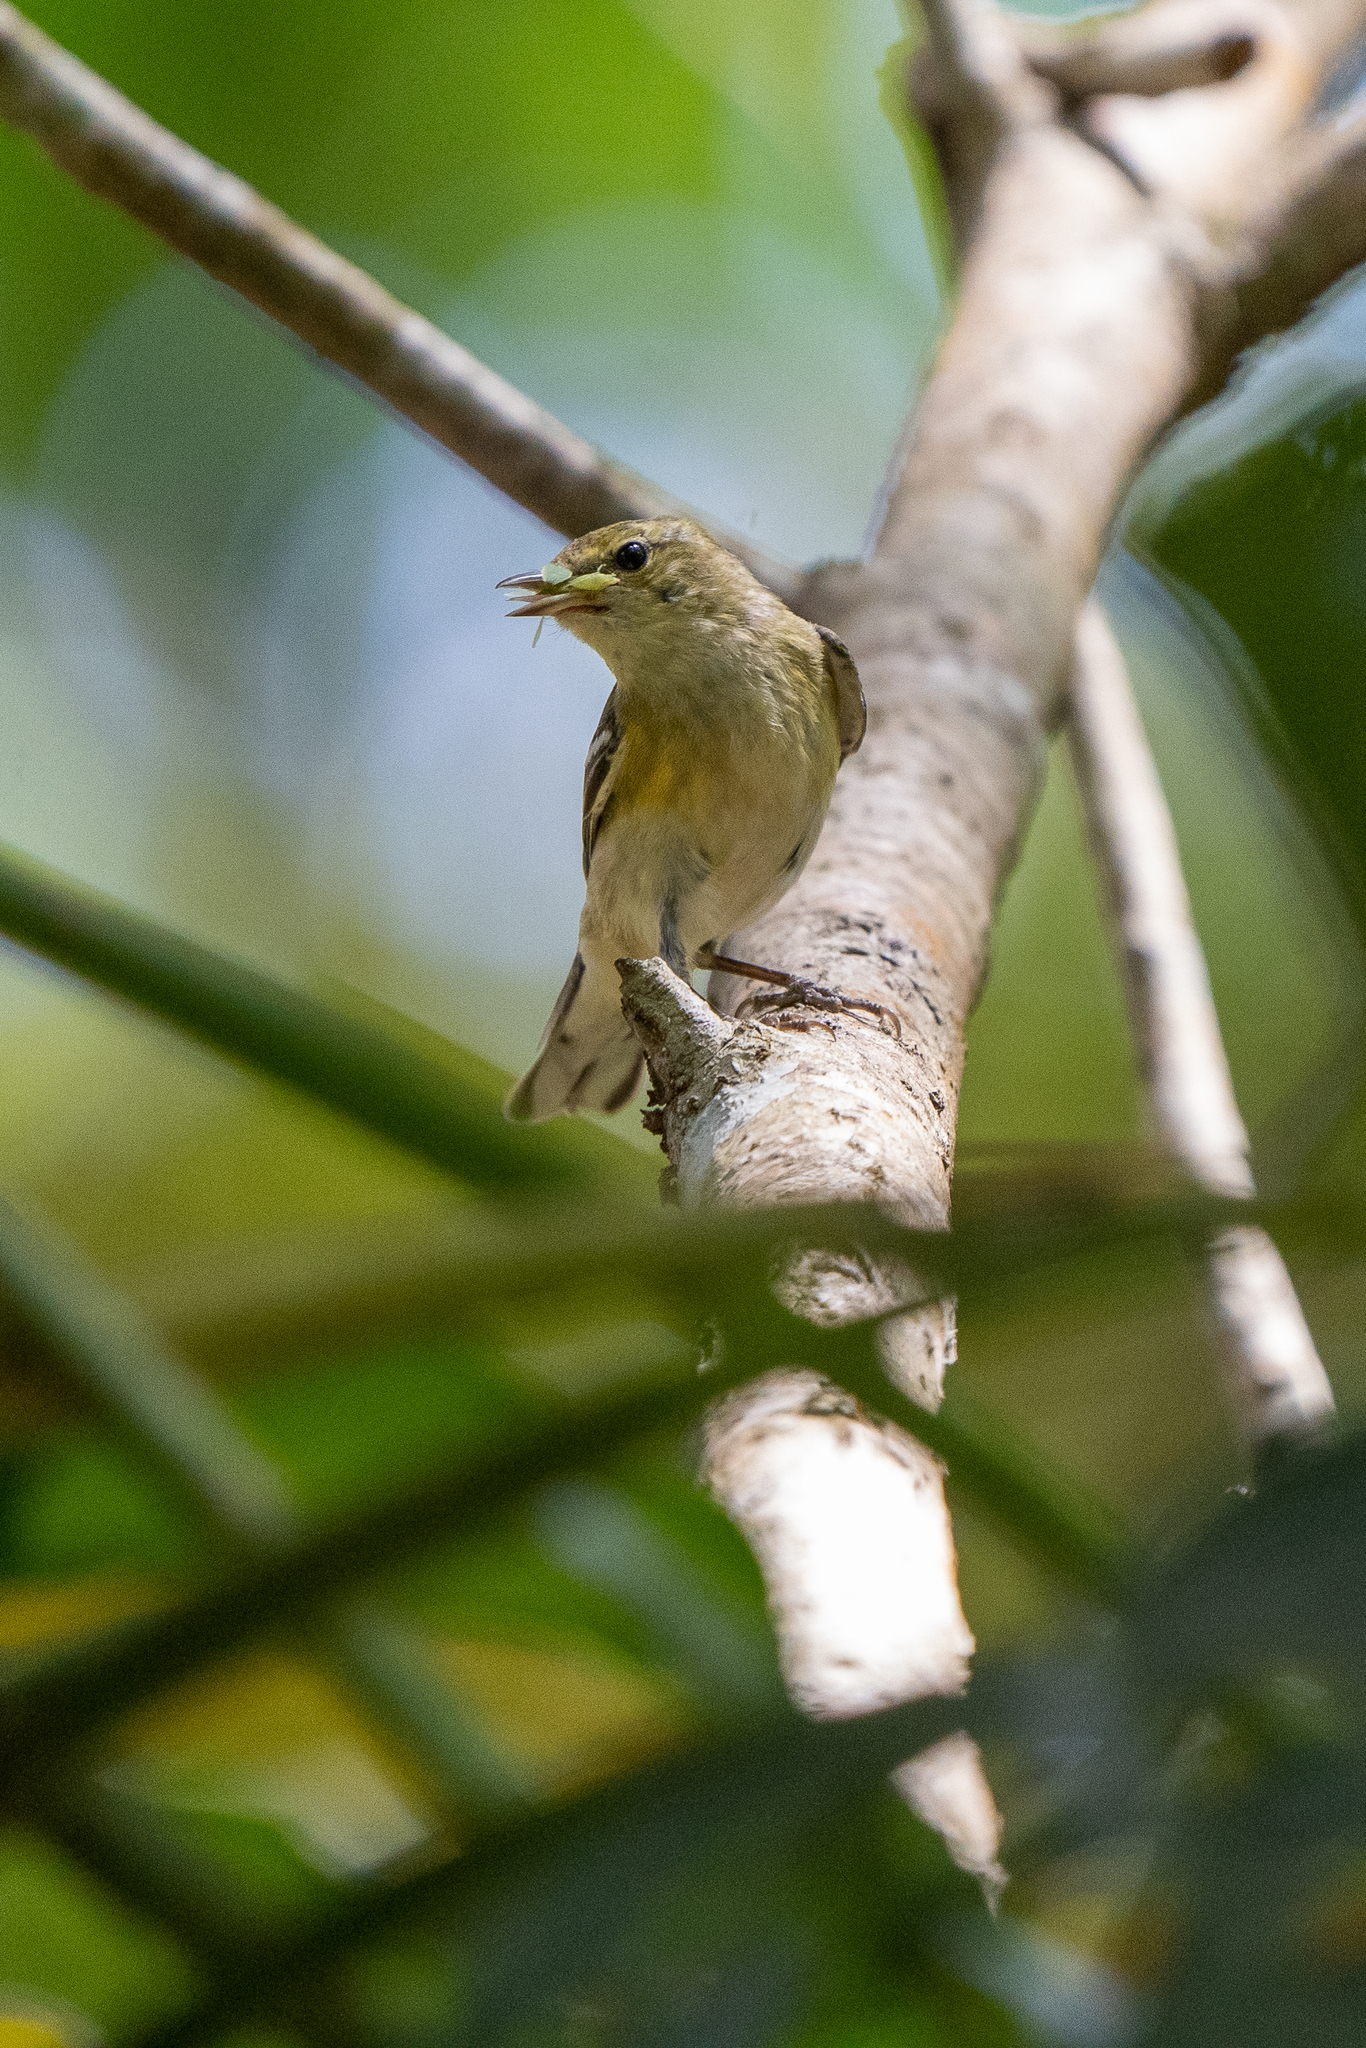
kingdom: Animalia
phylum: Chordata
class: Aves
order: Passeriformes
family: Parulidae
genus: Setophaga
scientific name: Setophaga castanea
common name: Bay-breasted warbler
